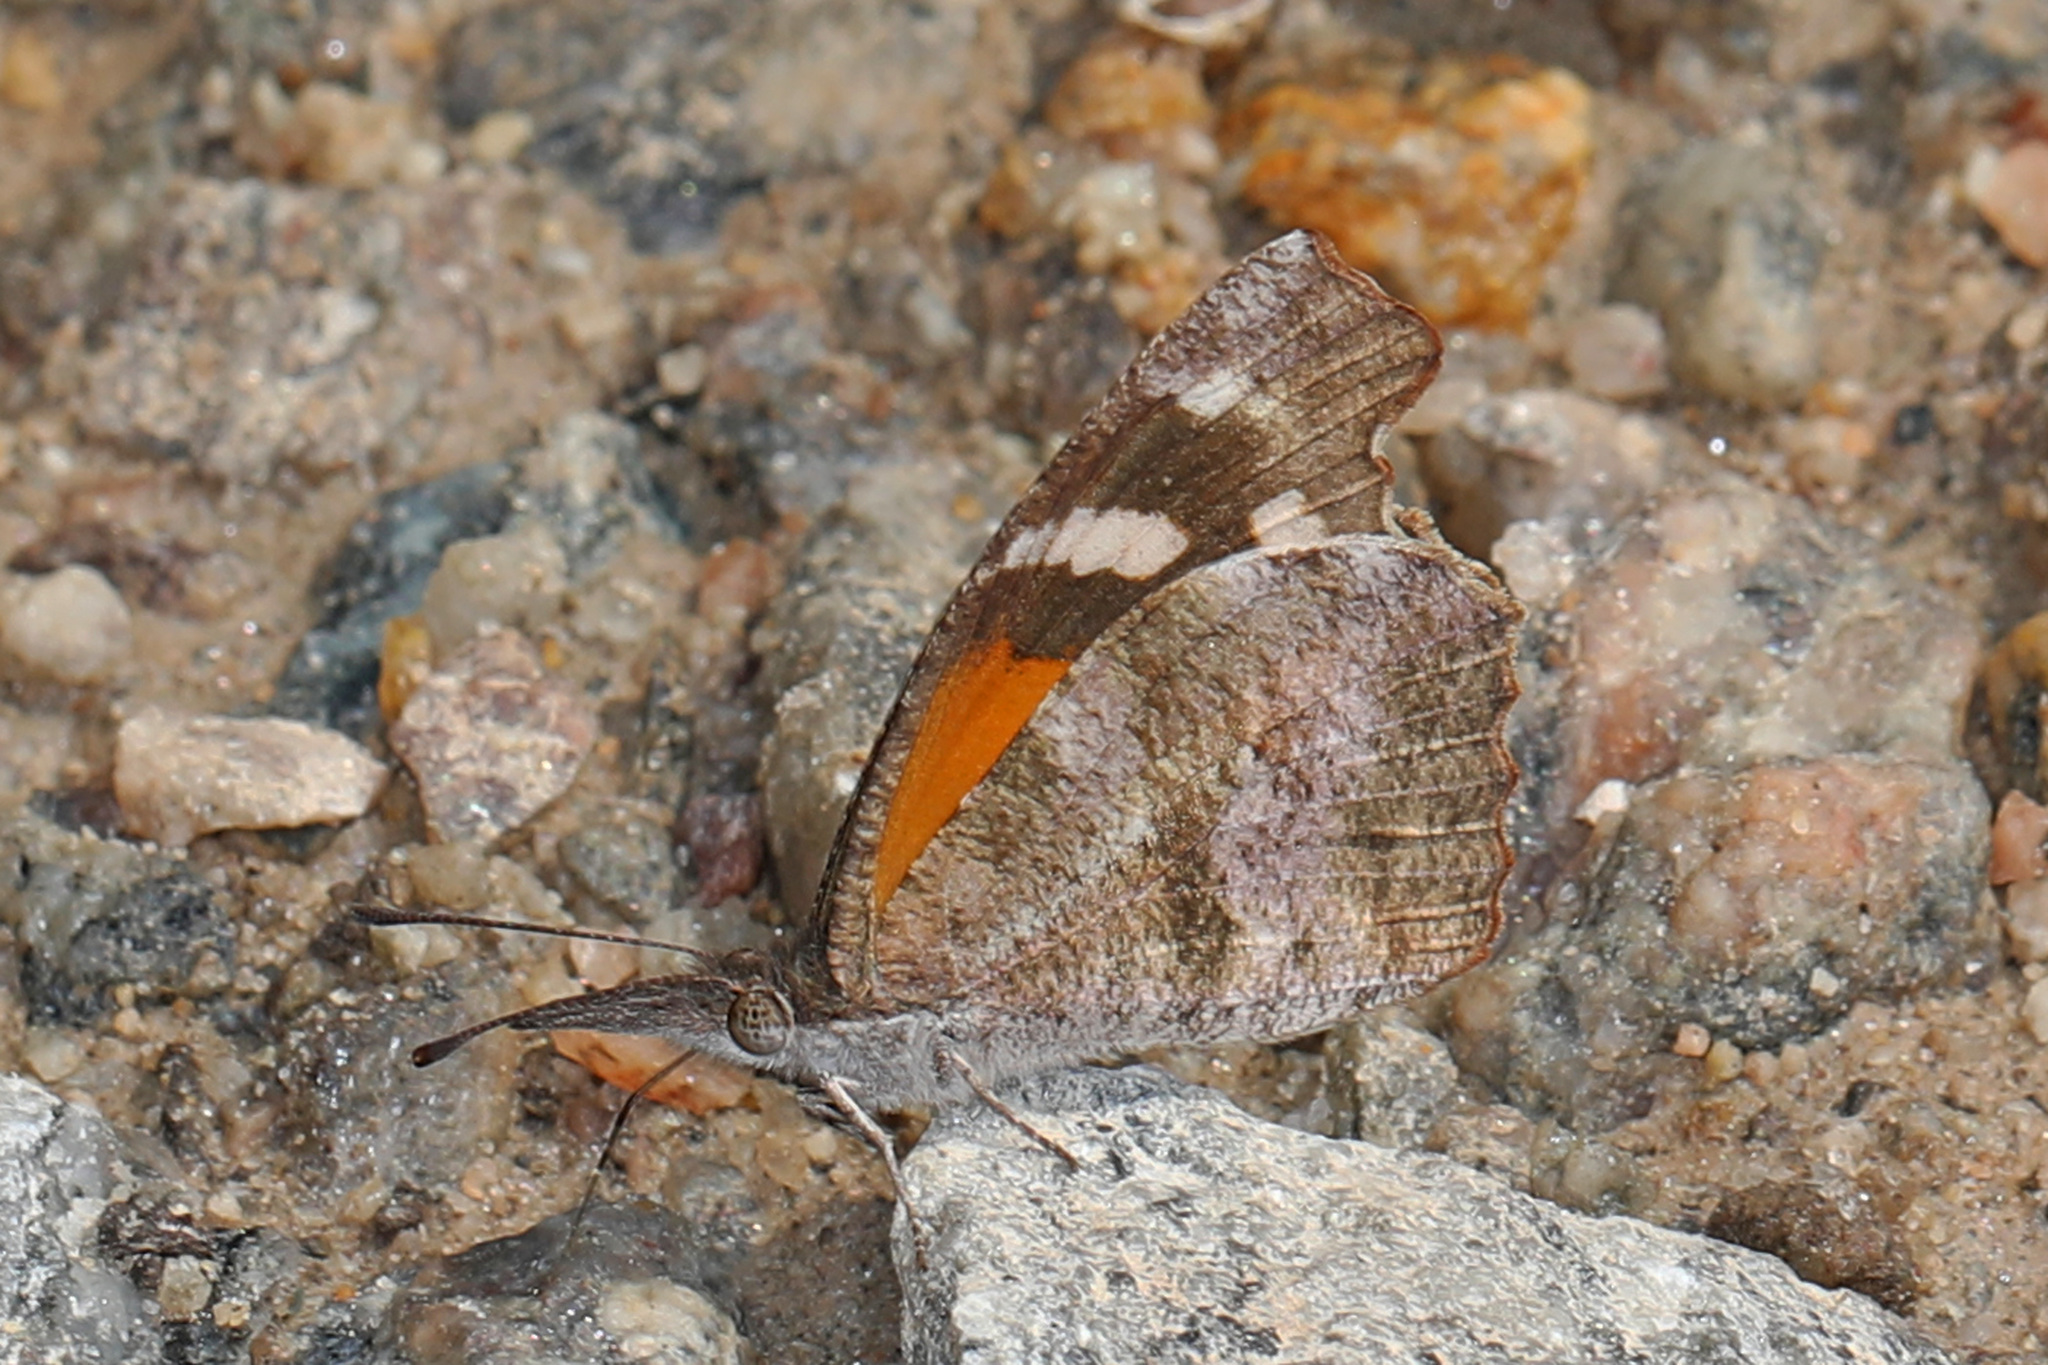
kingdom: Animalia
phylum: Arthropoda
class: Insecta
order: Lepidoptera
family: Nymphalidae
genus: Libytheana
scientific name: Libytheana carinenta
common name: American snout
